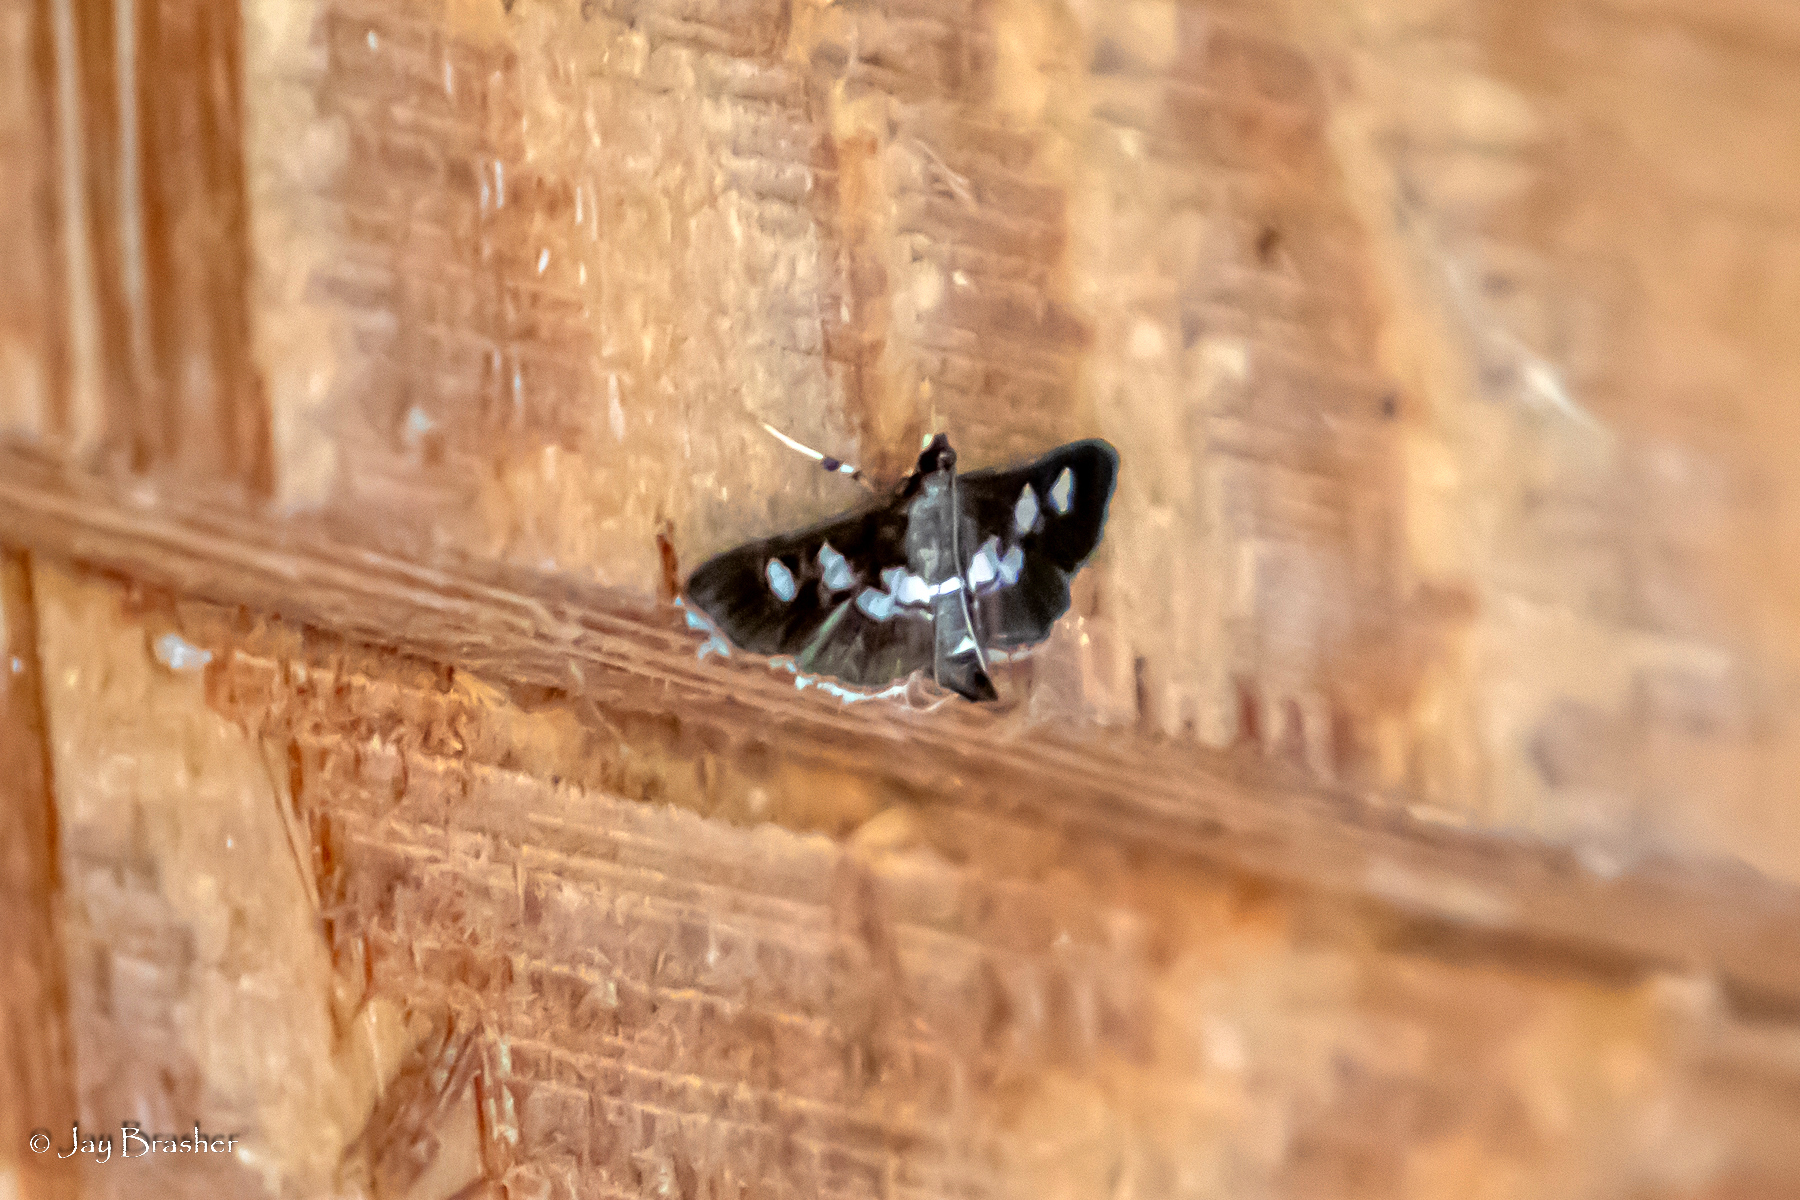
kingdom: Animalia
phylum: Arthropoda
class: Insecta
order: Lepidoptera
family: Crambidae
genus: Desmia
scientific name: Desmia
